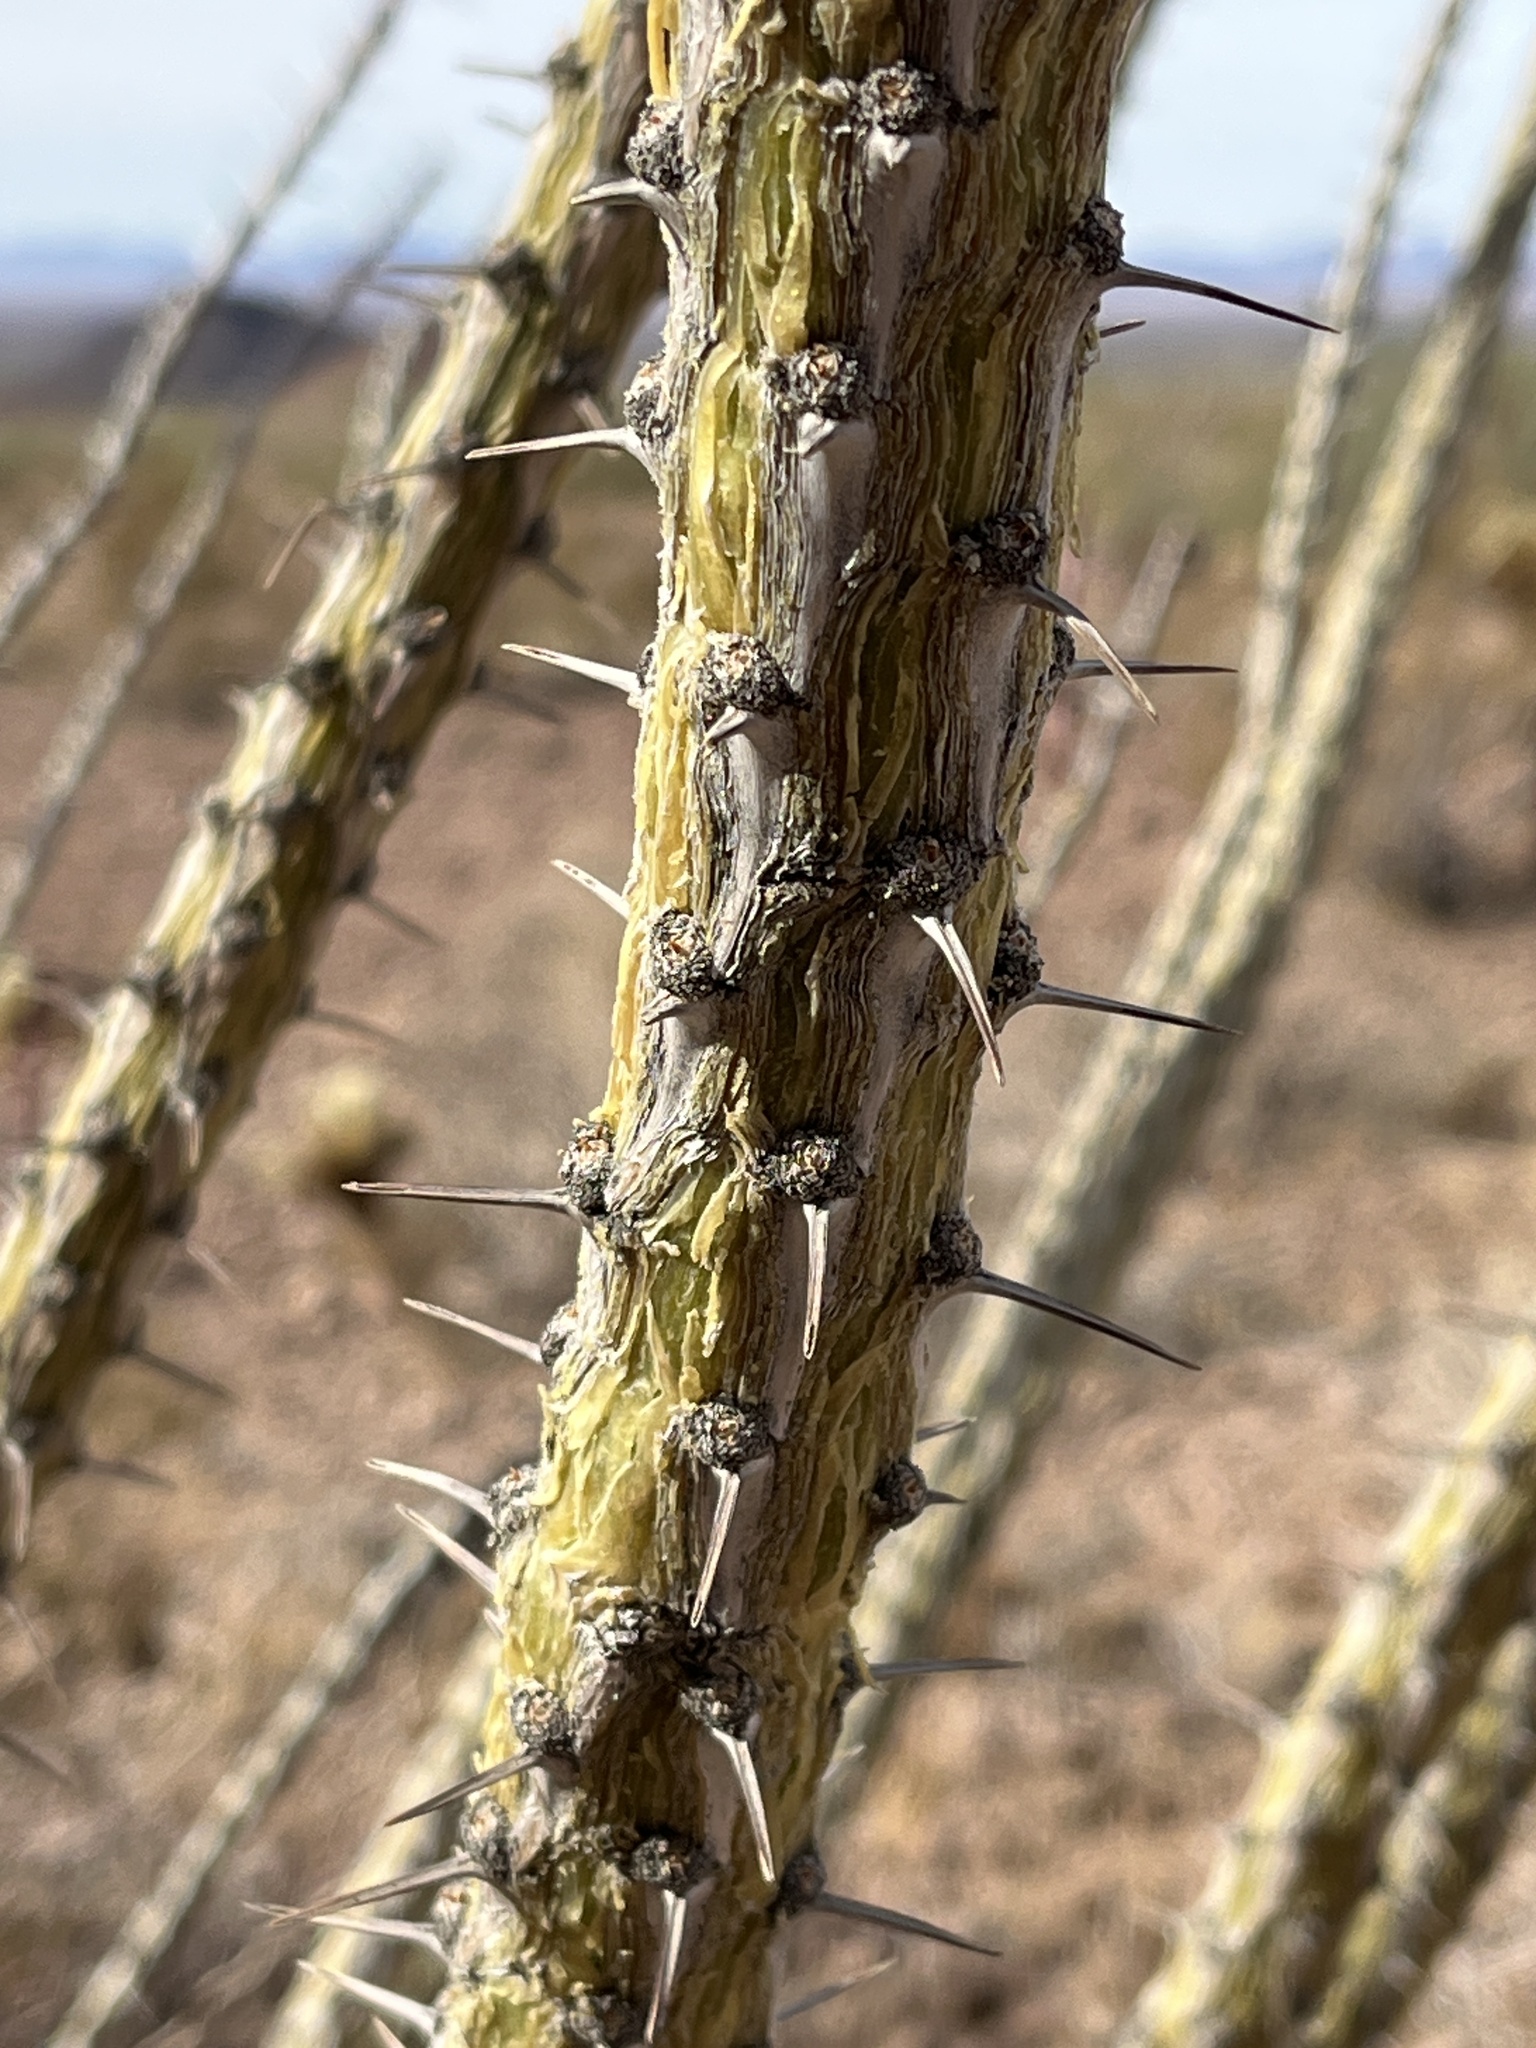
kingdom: Plantae
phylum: Tracheophyta
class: Magnoliopsida
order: Ericales
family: Fouquieriaceae
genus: Fouquieria
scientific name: Fouquieria splendens
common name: Vine-cactus
